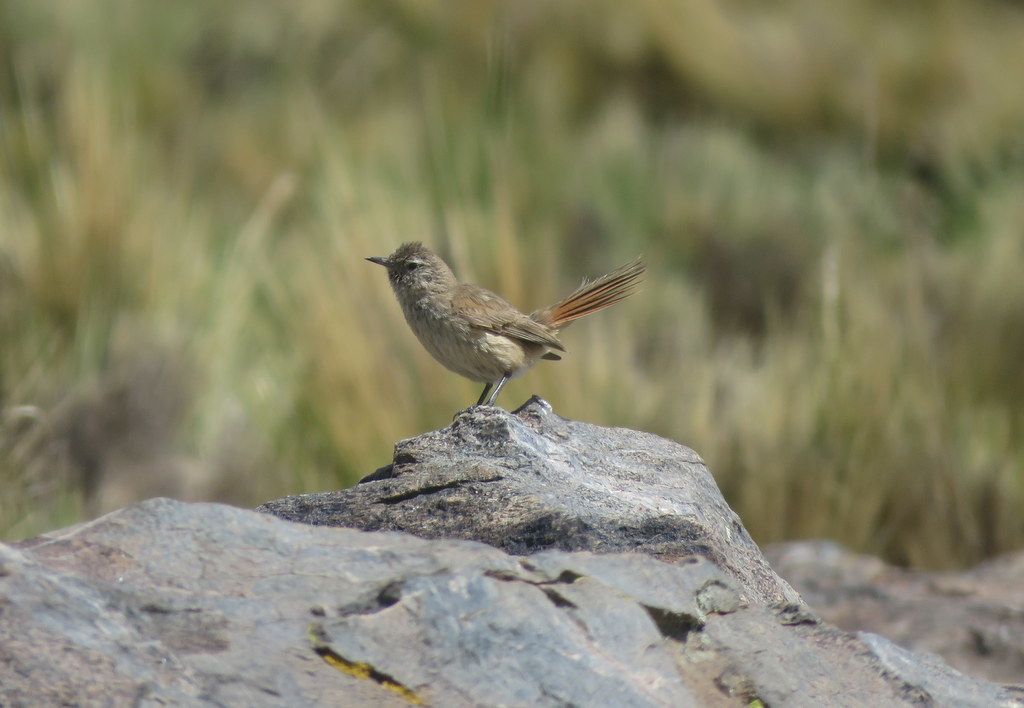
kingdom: Animalia
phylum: Chordata
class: Aves
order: Passeriformes
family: Furnariidae
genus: Asthenes
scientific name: Asthenes modesta
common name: Cordilleran canastero
